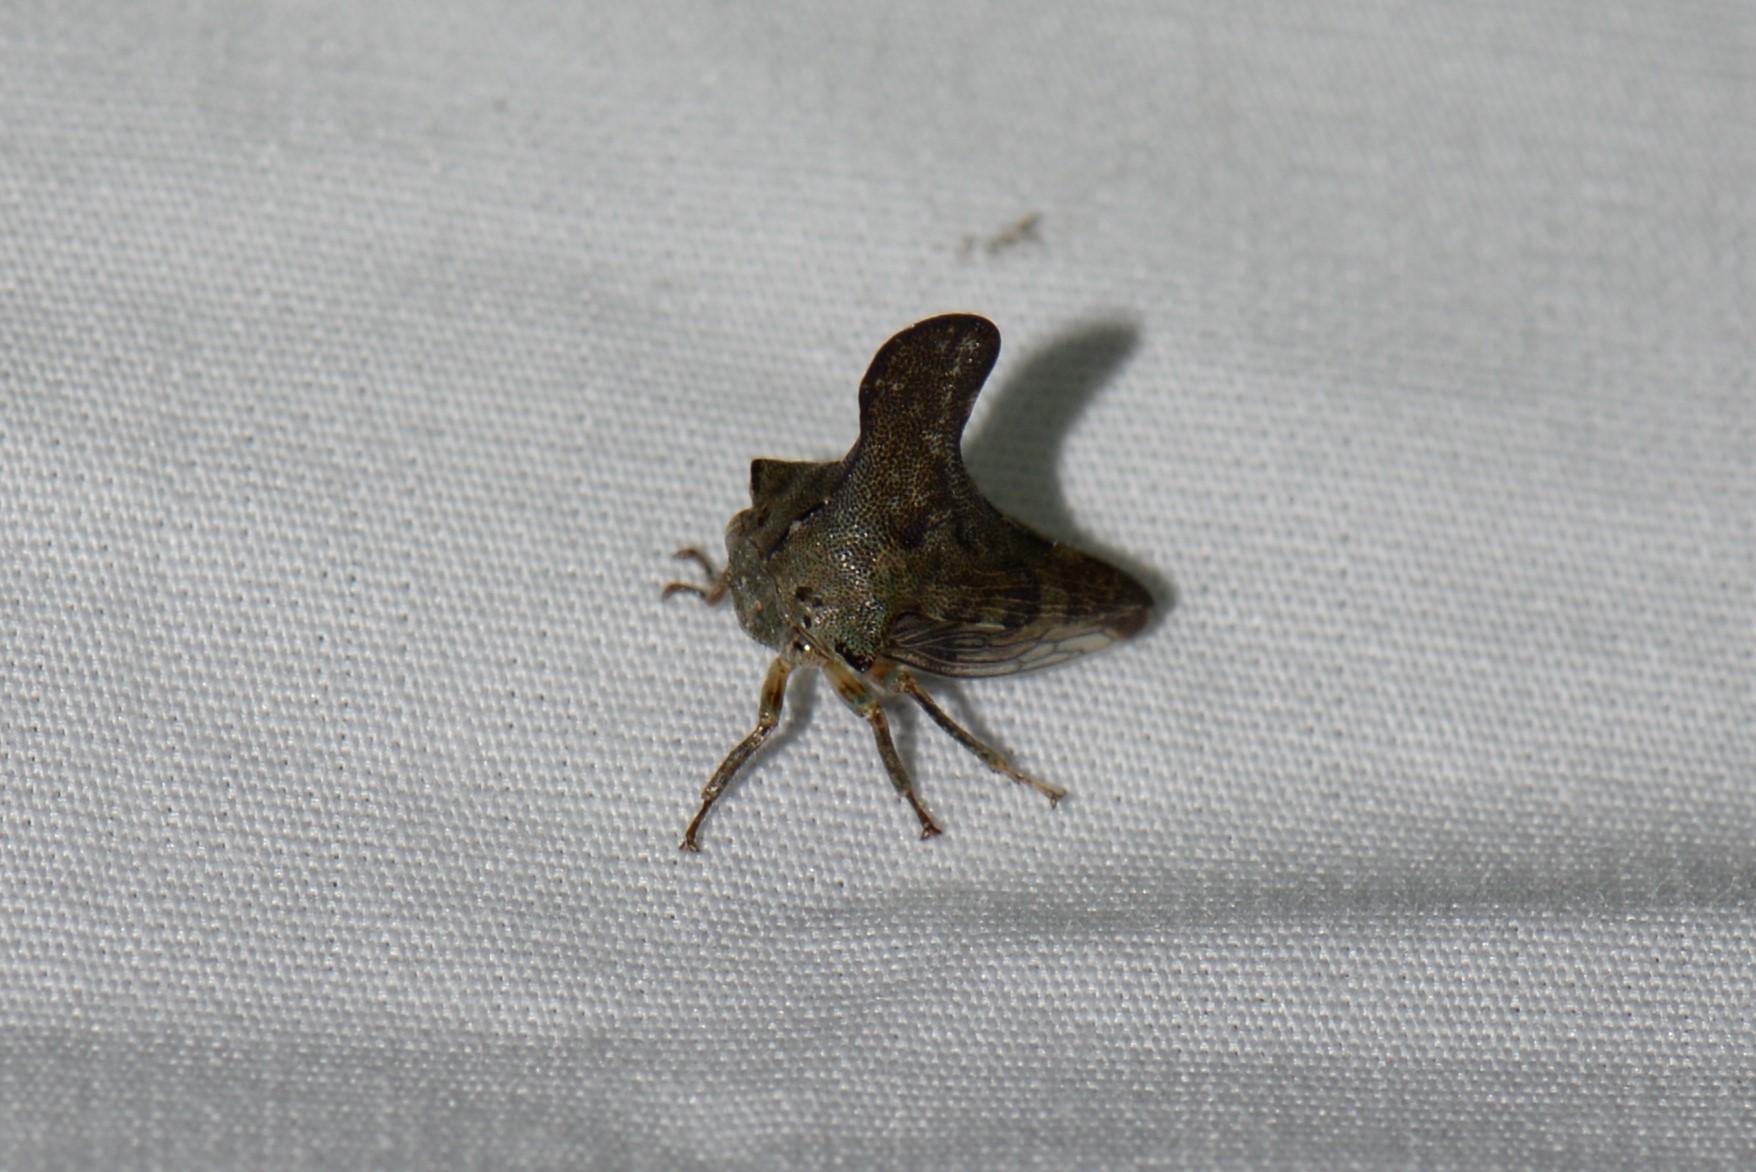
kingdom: Animalia
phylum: Arthropoda
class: Insecta
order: Hemiptera
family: Membracidae
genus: Glossonotus
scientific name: Glossonotus acuminata
